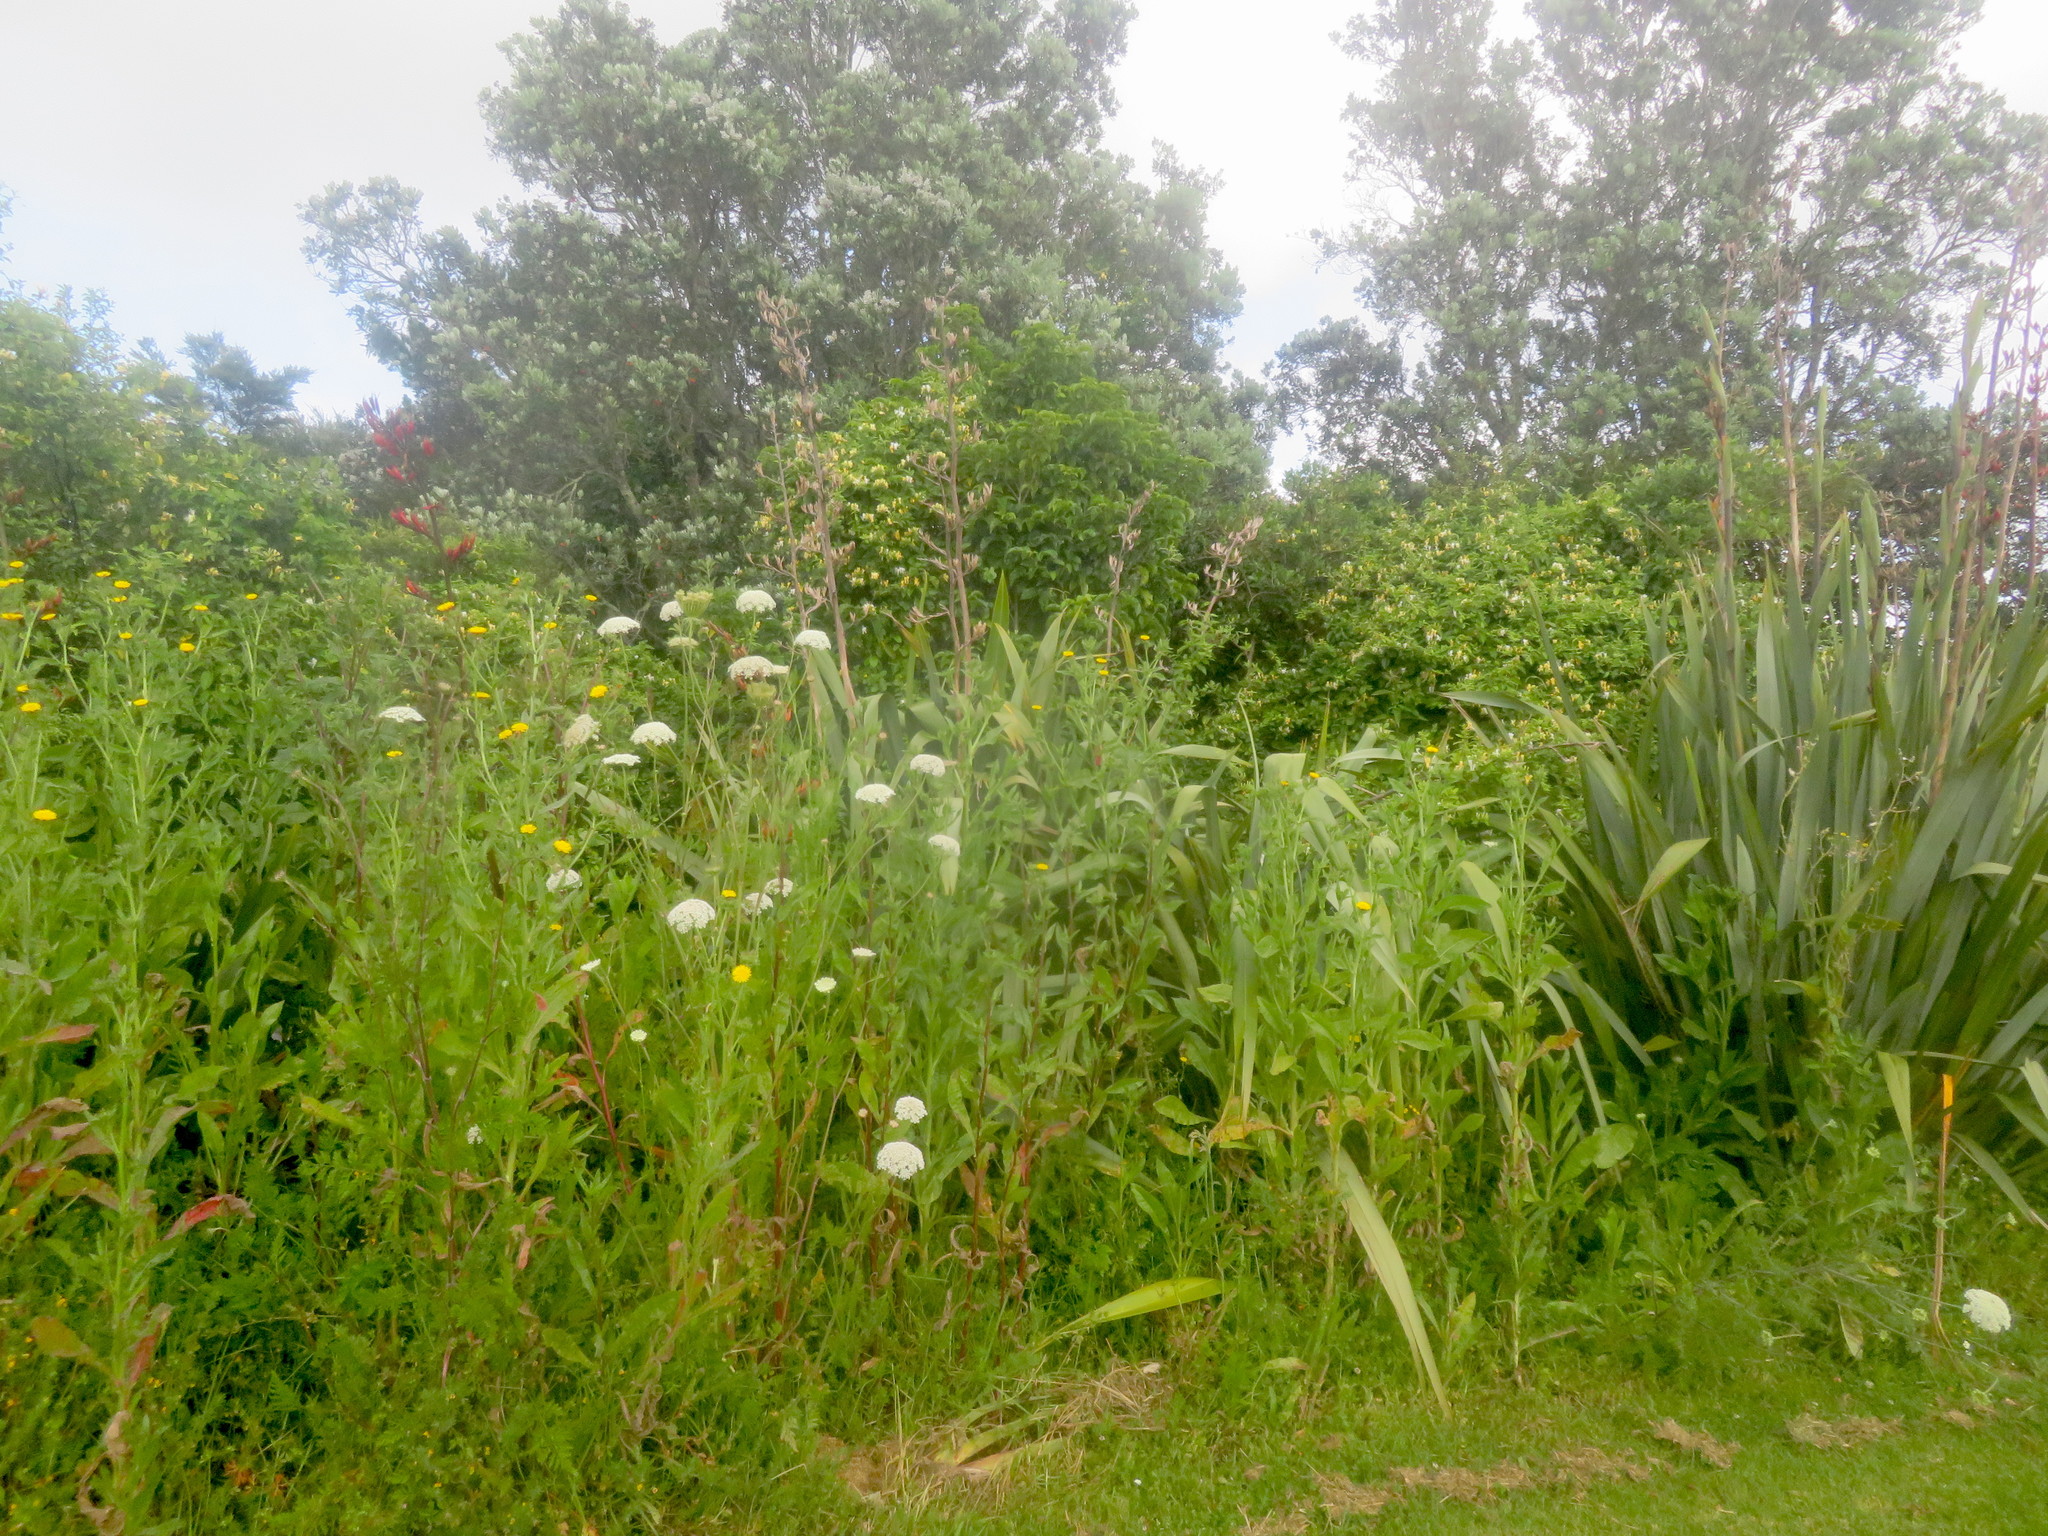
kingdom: Plantae
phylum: Tracheophyta
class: Magnoliopsida
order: Asterales
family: Asteraceae
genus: Helminthotheca
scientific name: Helminthotheca echioides
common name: Ox-tongue
